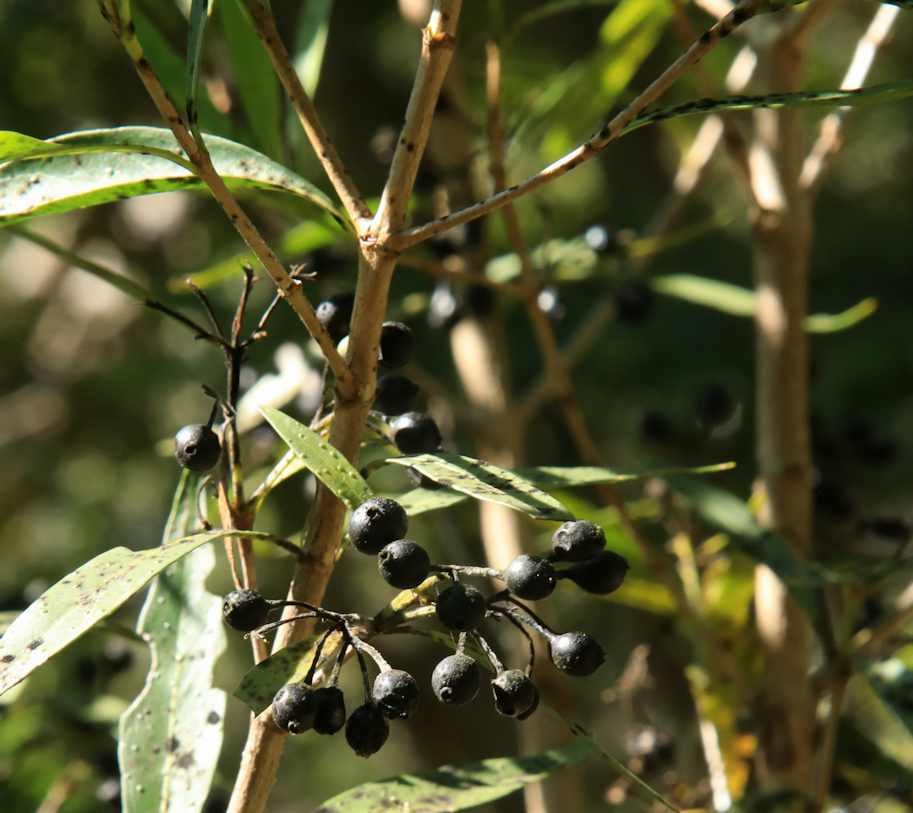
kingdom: Plantae
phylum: Tracheophyta
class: Magnoliopsida
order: Gentianales
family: Rubiaceae
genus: Pavetta
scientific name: Pavetta lanceolata
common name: Weeping brides-bush
